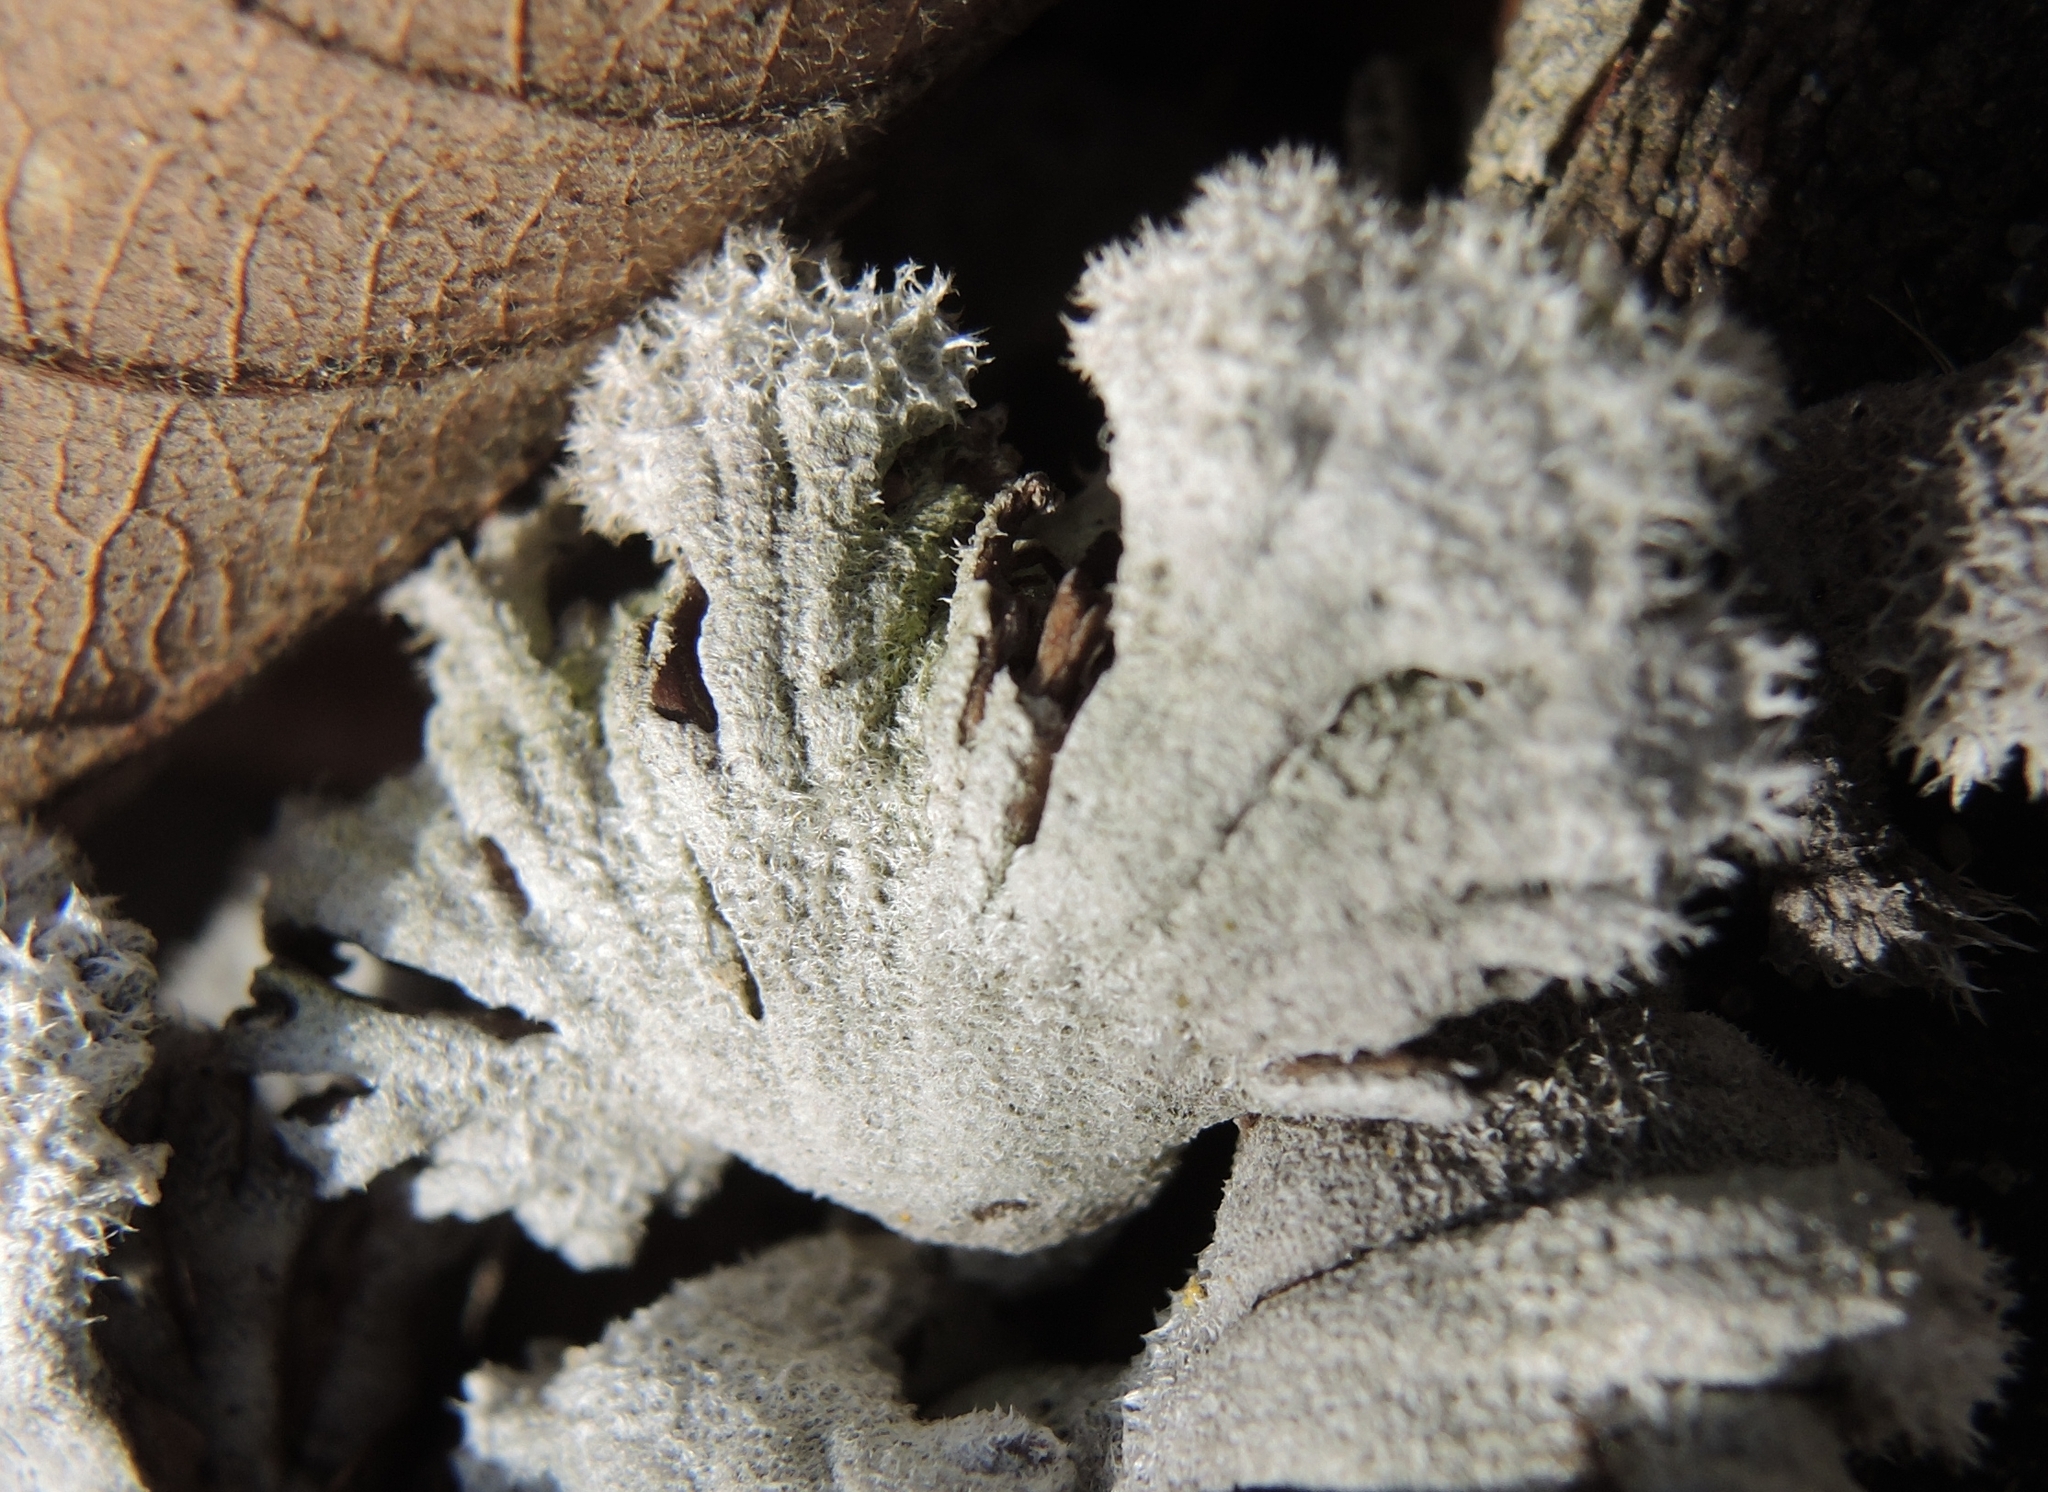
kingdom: Fungi
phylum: Basidiomycota
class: Agaricomycetes
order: Agaricales
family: Schizophyllaceae
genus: Schizophyllum
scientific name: Schizophyllum commune
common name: Common porecrust
